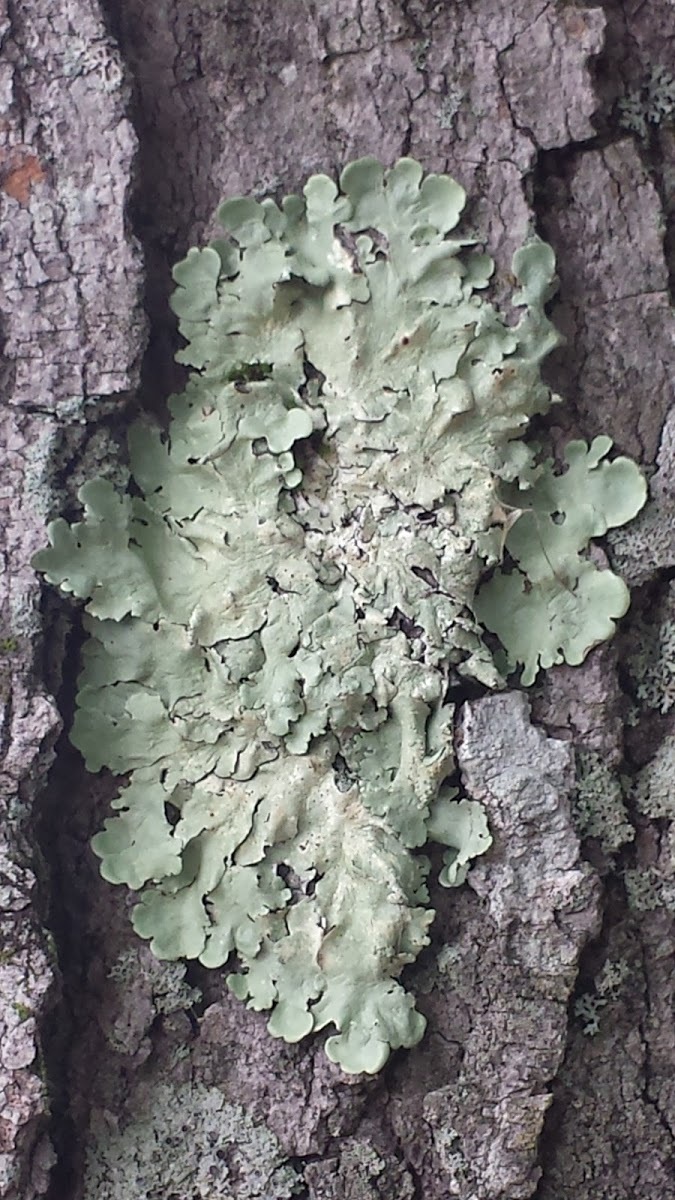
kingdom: Fungi
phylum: Ascomycota
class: Lecanoromycetes
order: Lecanorales
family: Parmeliaceae
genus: Flavoparmelia
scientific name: Flavoparmelia caperata
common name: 40-mile per hour lichen
